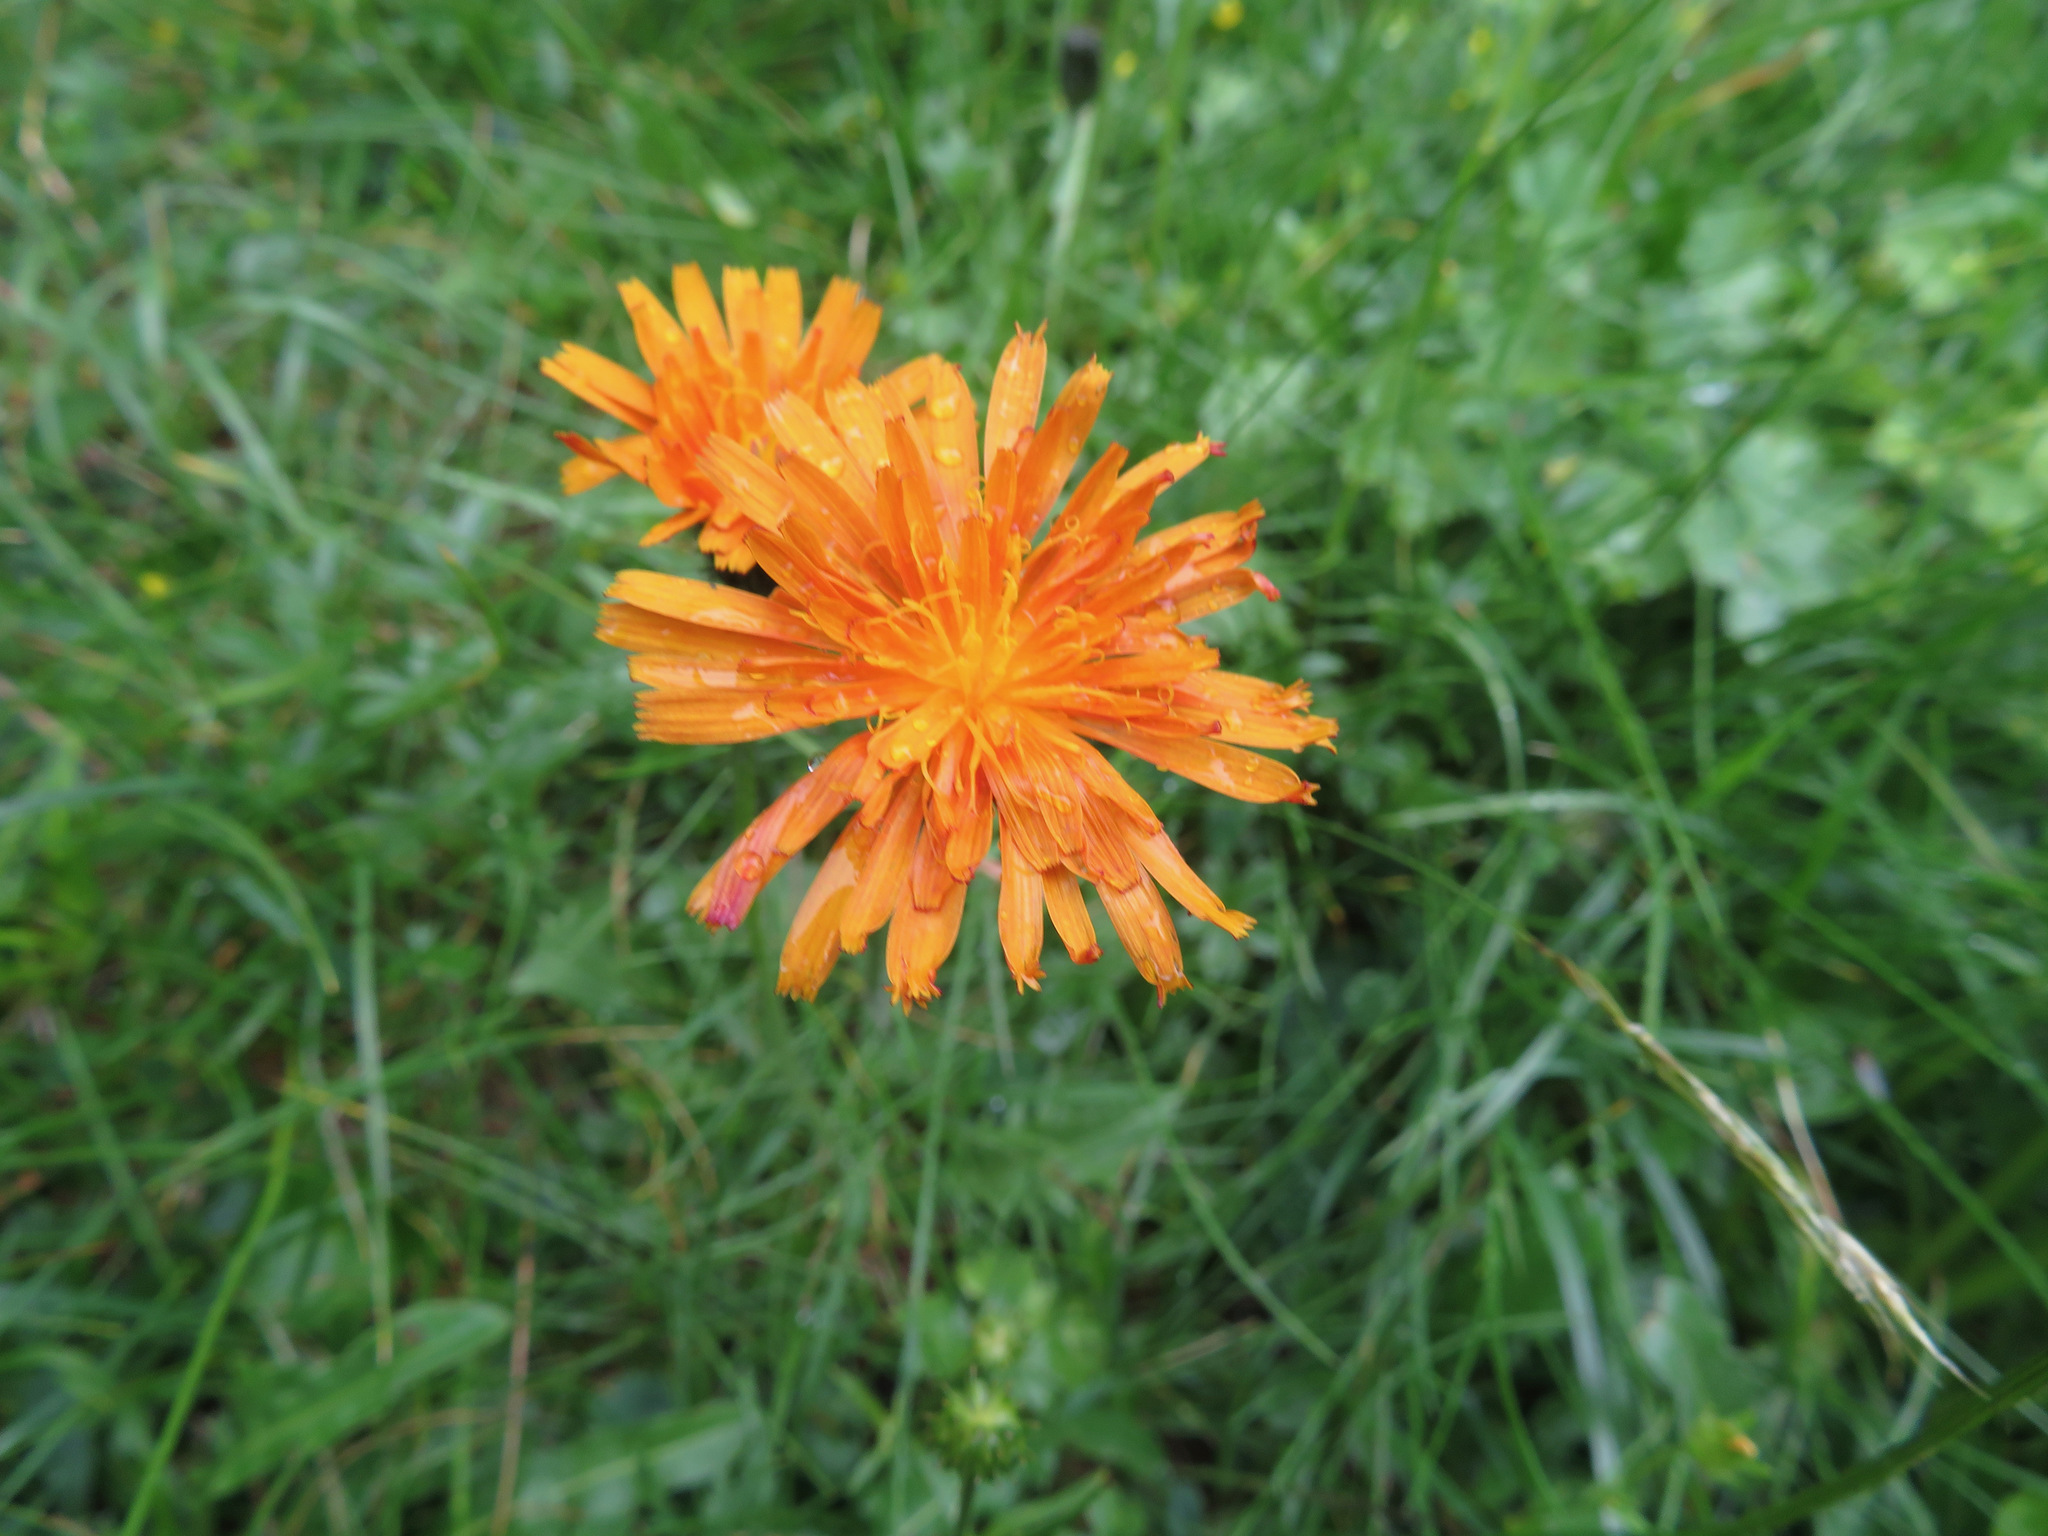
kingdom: Plantae
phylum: Tracheophyta
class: Magnoliopsida
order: Asterales
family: Asteraceae
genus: Crepis
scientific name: Crepis aurea
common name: Golden hawk's-beard
